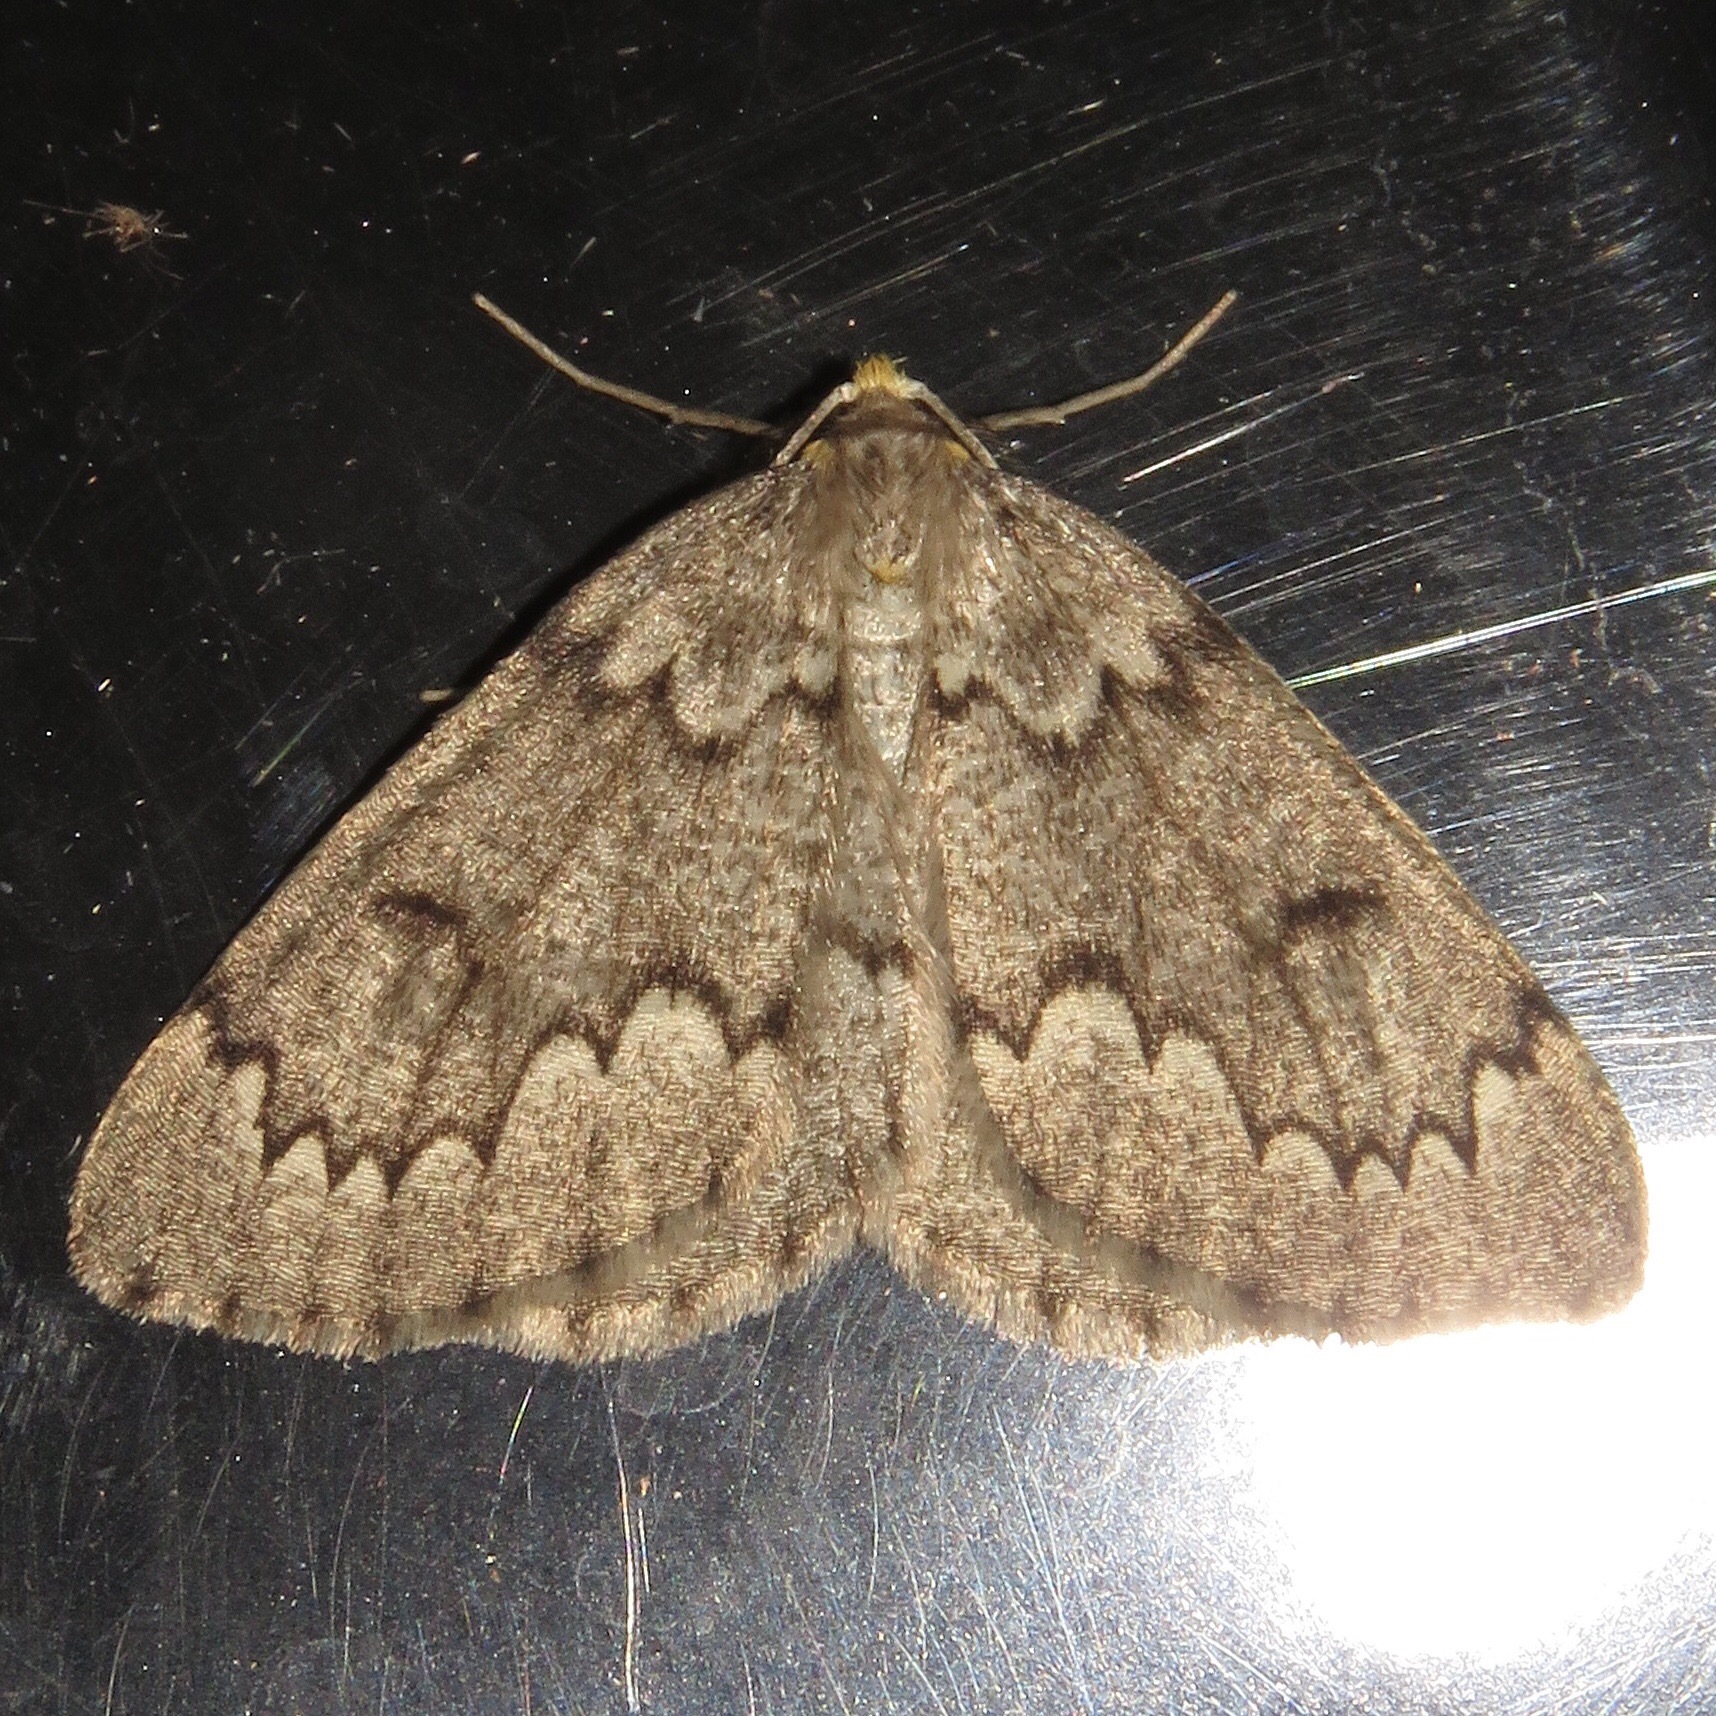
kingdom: Animalia
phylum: Arthropoda
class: Insecta
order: Lepidoptera
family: Geometridae
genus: Nepytia
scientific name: Nepytia canosaria
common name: False hemlock looper
